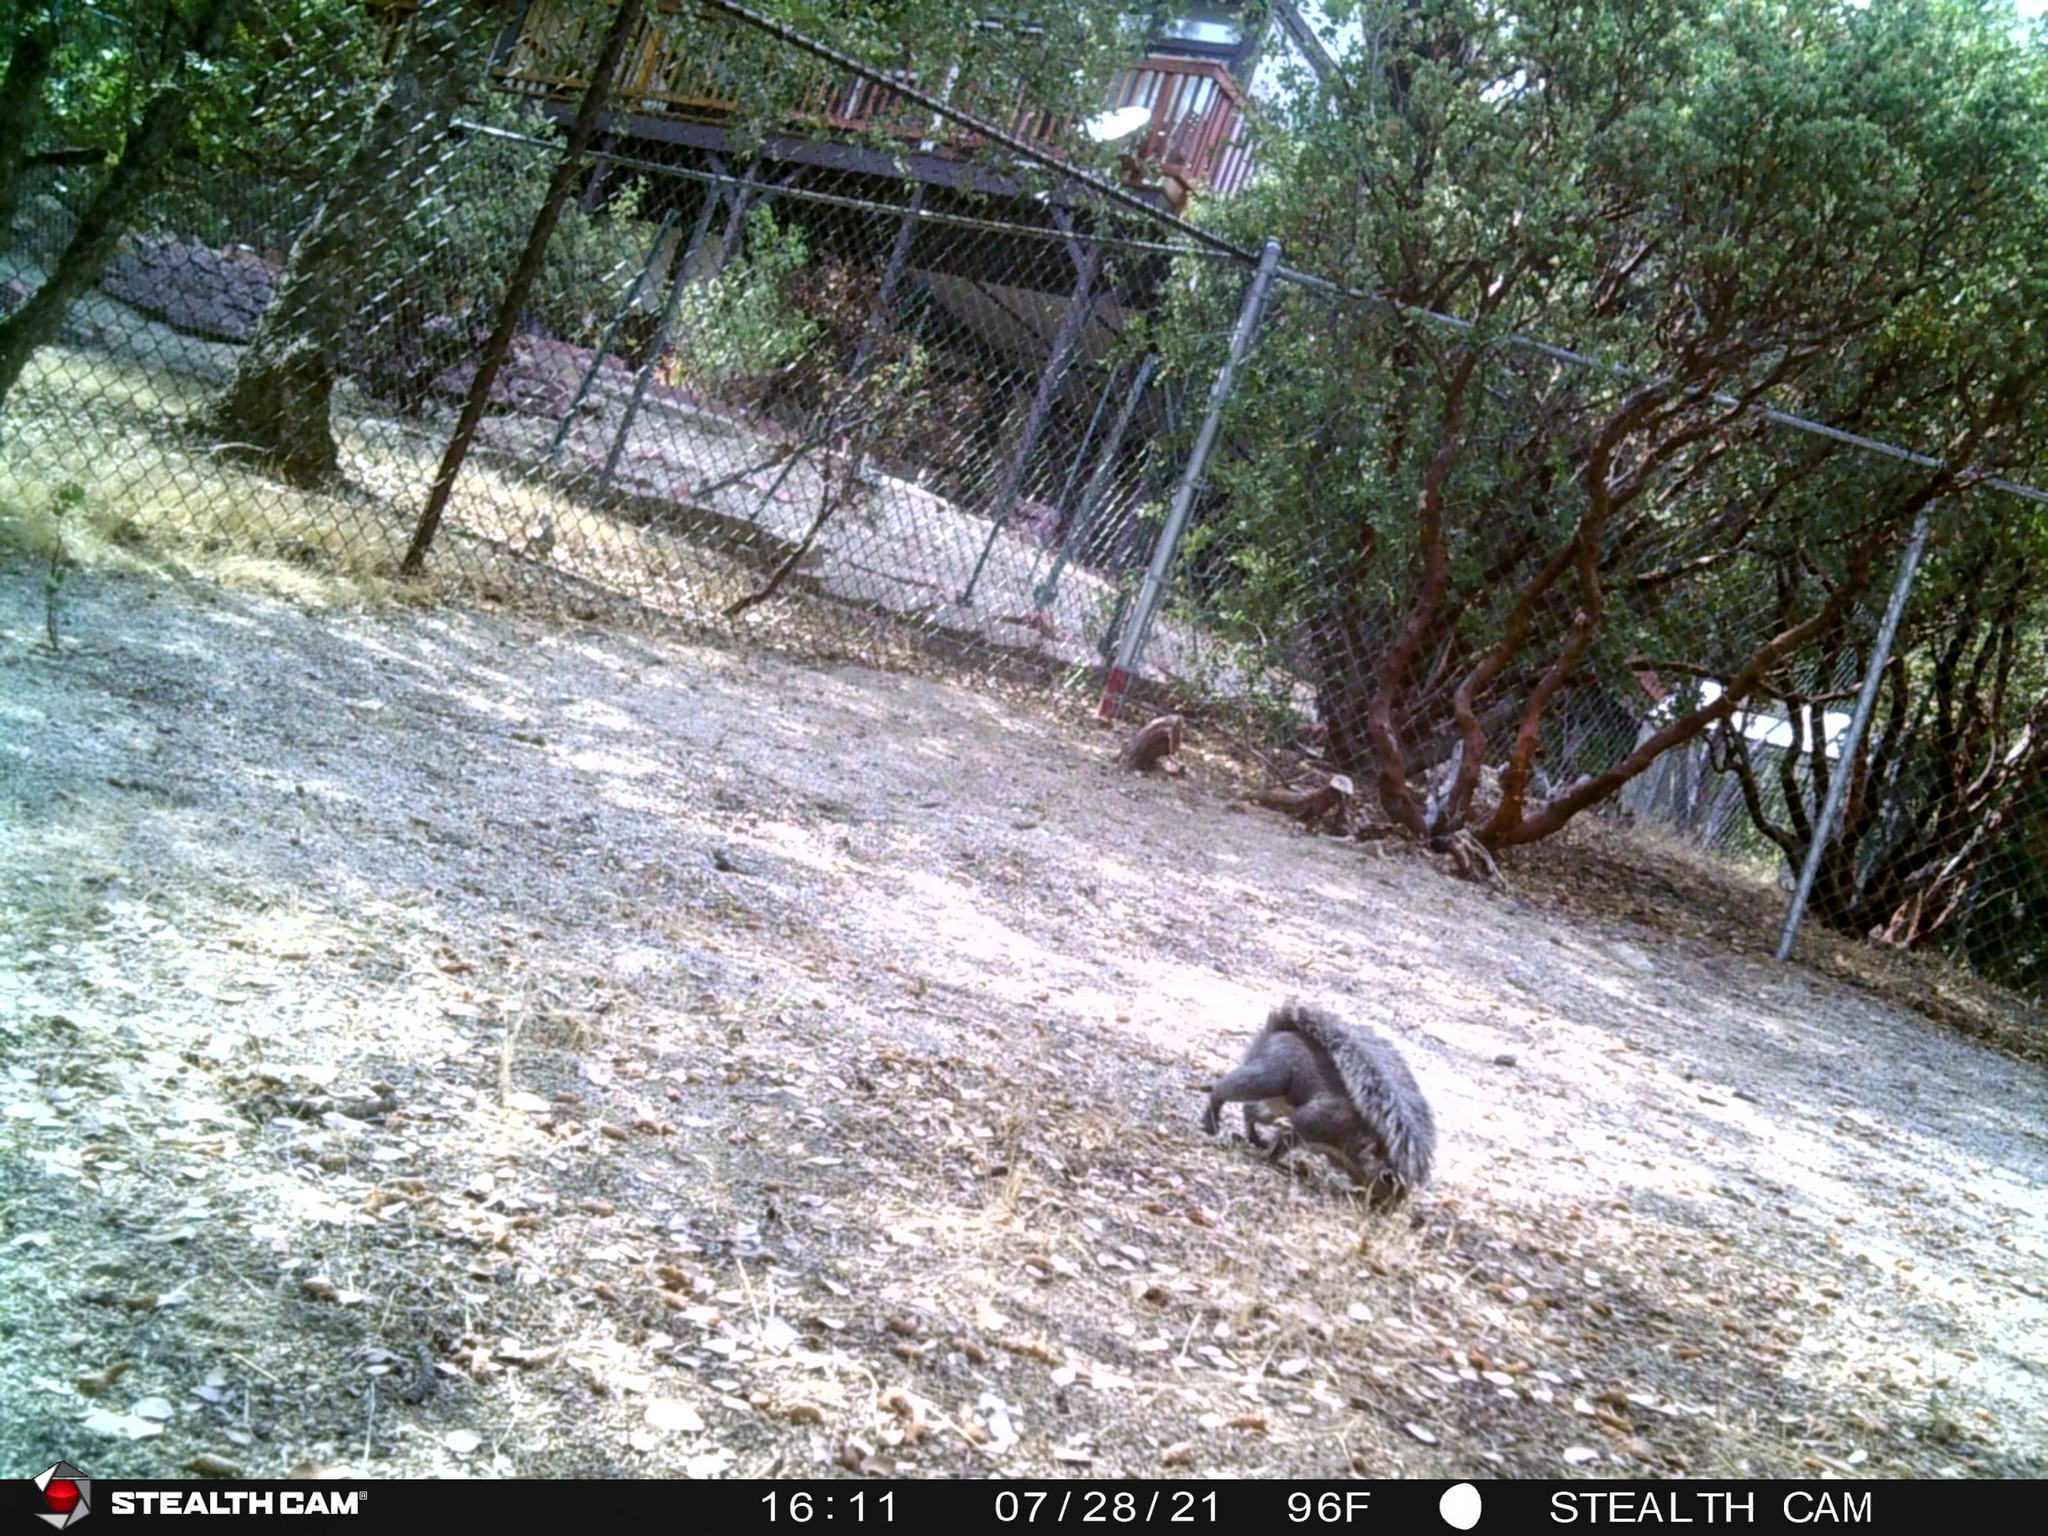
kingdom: Animalia
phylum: Chordata
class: Mammalia
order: Rodentia
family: Sciuridae
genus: Sciurus
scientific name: Sciurus griseus
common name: Western gray squirrel
